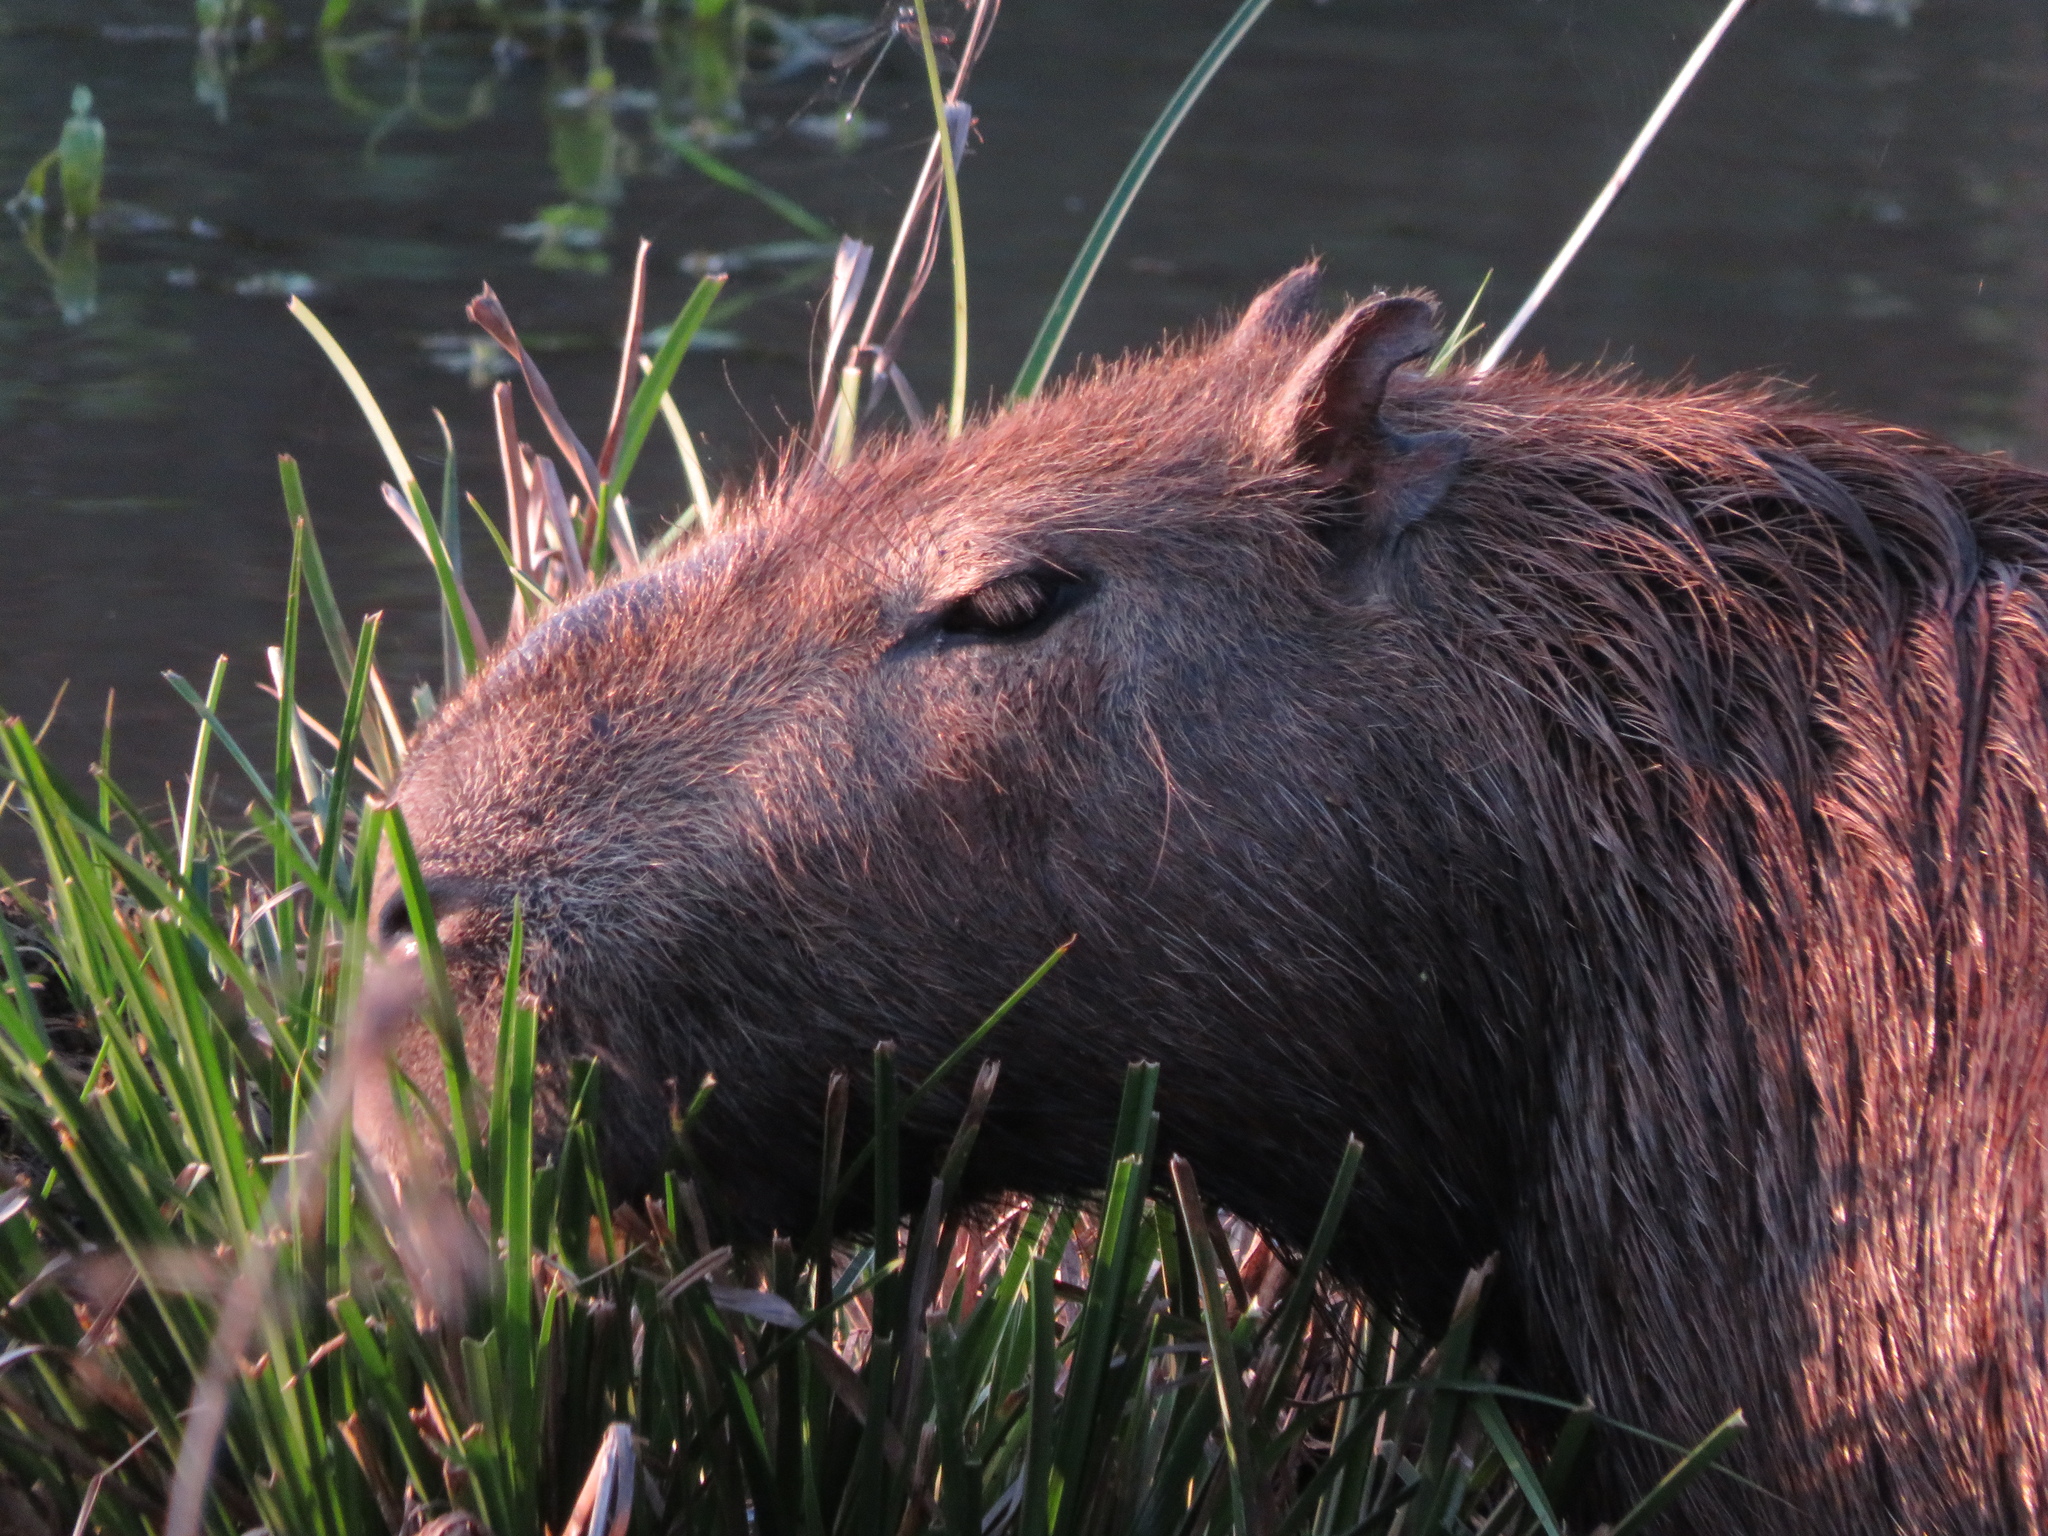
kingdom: Animalia
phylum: Chordata
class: Mammalia
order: Rodentia
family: Caviidae
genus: Hydrochoerus
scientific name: Hydrochoerus hydrochaeris
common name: Capybara
